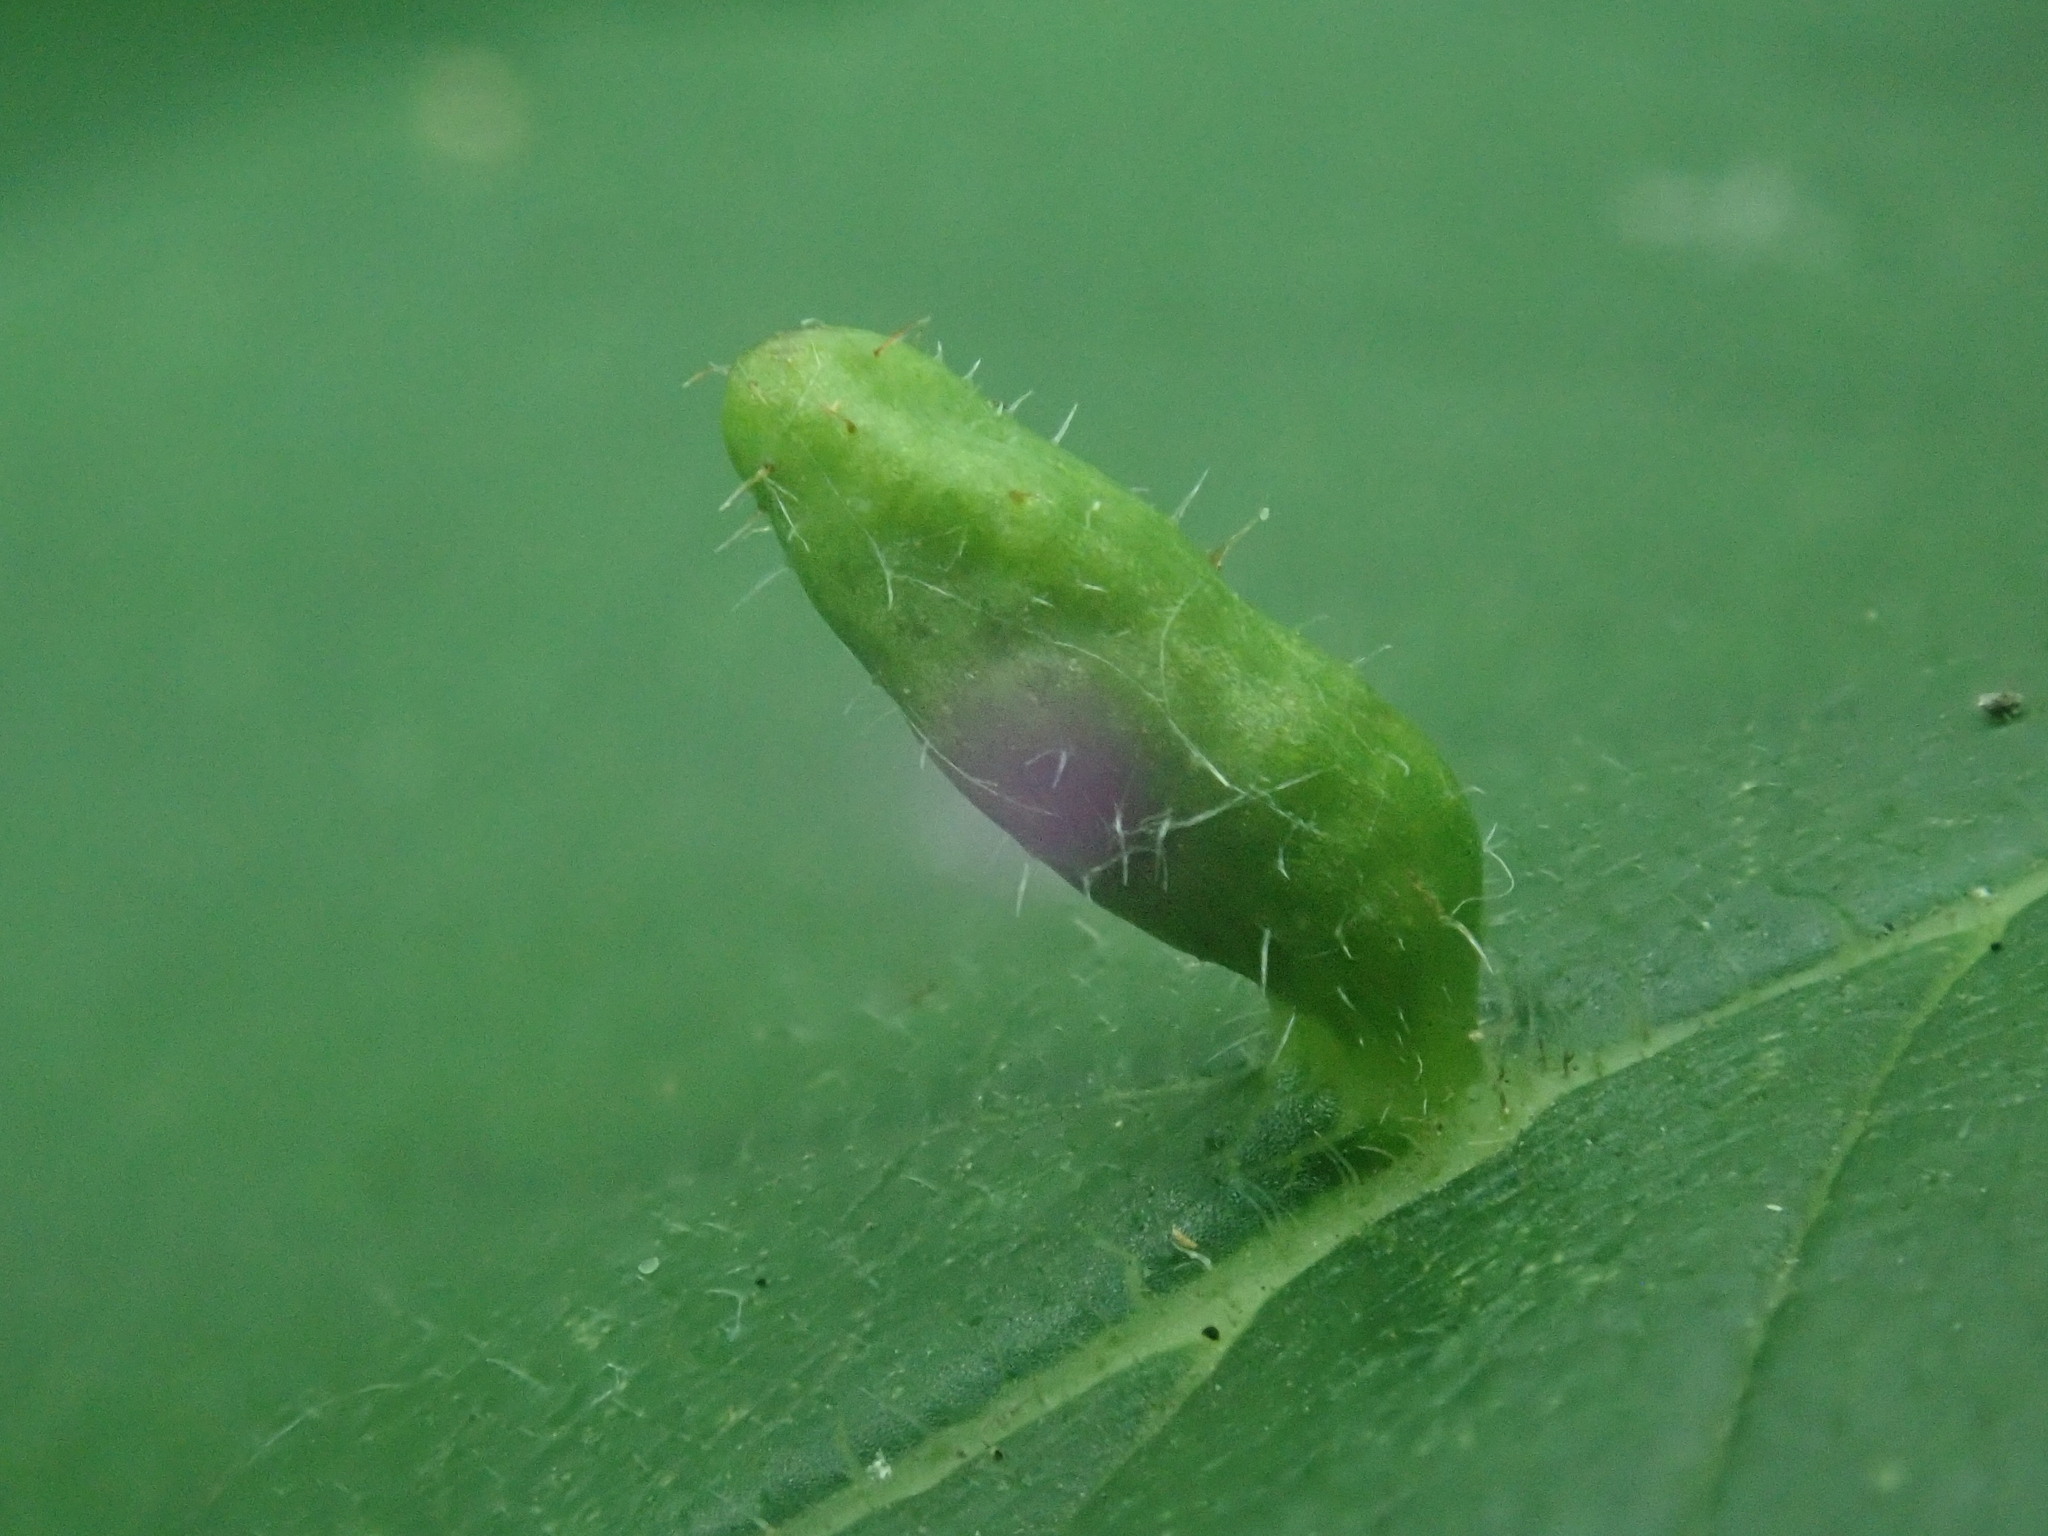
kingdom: Animalia
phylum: Arthropoda
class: Arachnida
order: Trombidiformes
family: Eriophyidae
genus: Aceria
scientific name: Aceria
